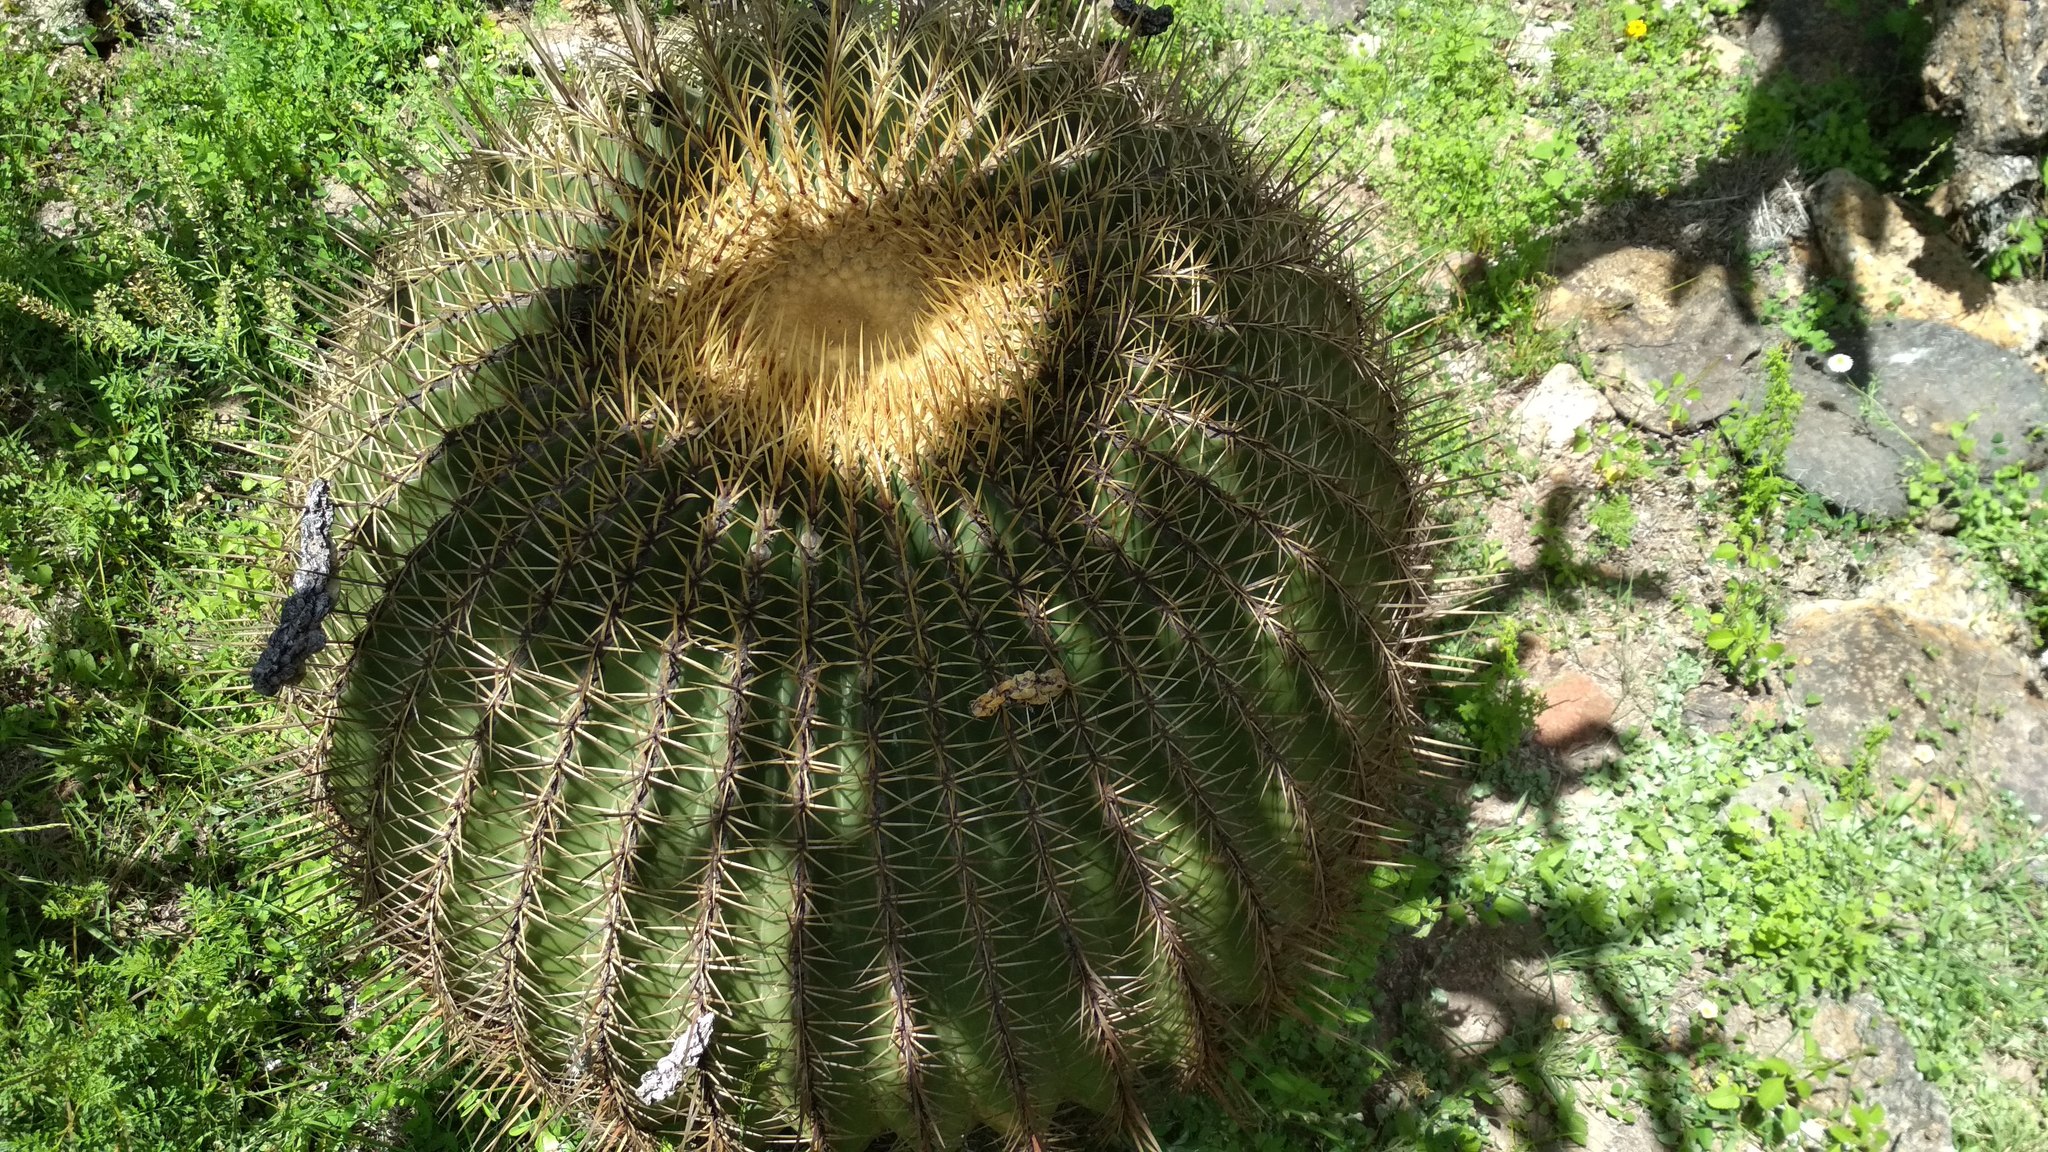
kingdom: Plantae
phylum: Tracheophyta
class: Magnoliopsida
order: Caryophyllales
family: Cactaceae
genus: Bisnaga
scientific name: Bisnaga histrix
